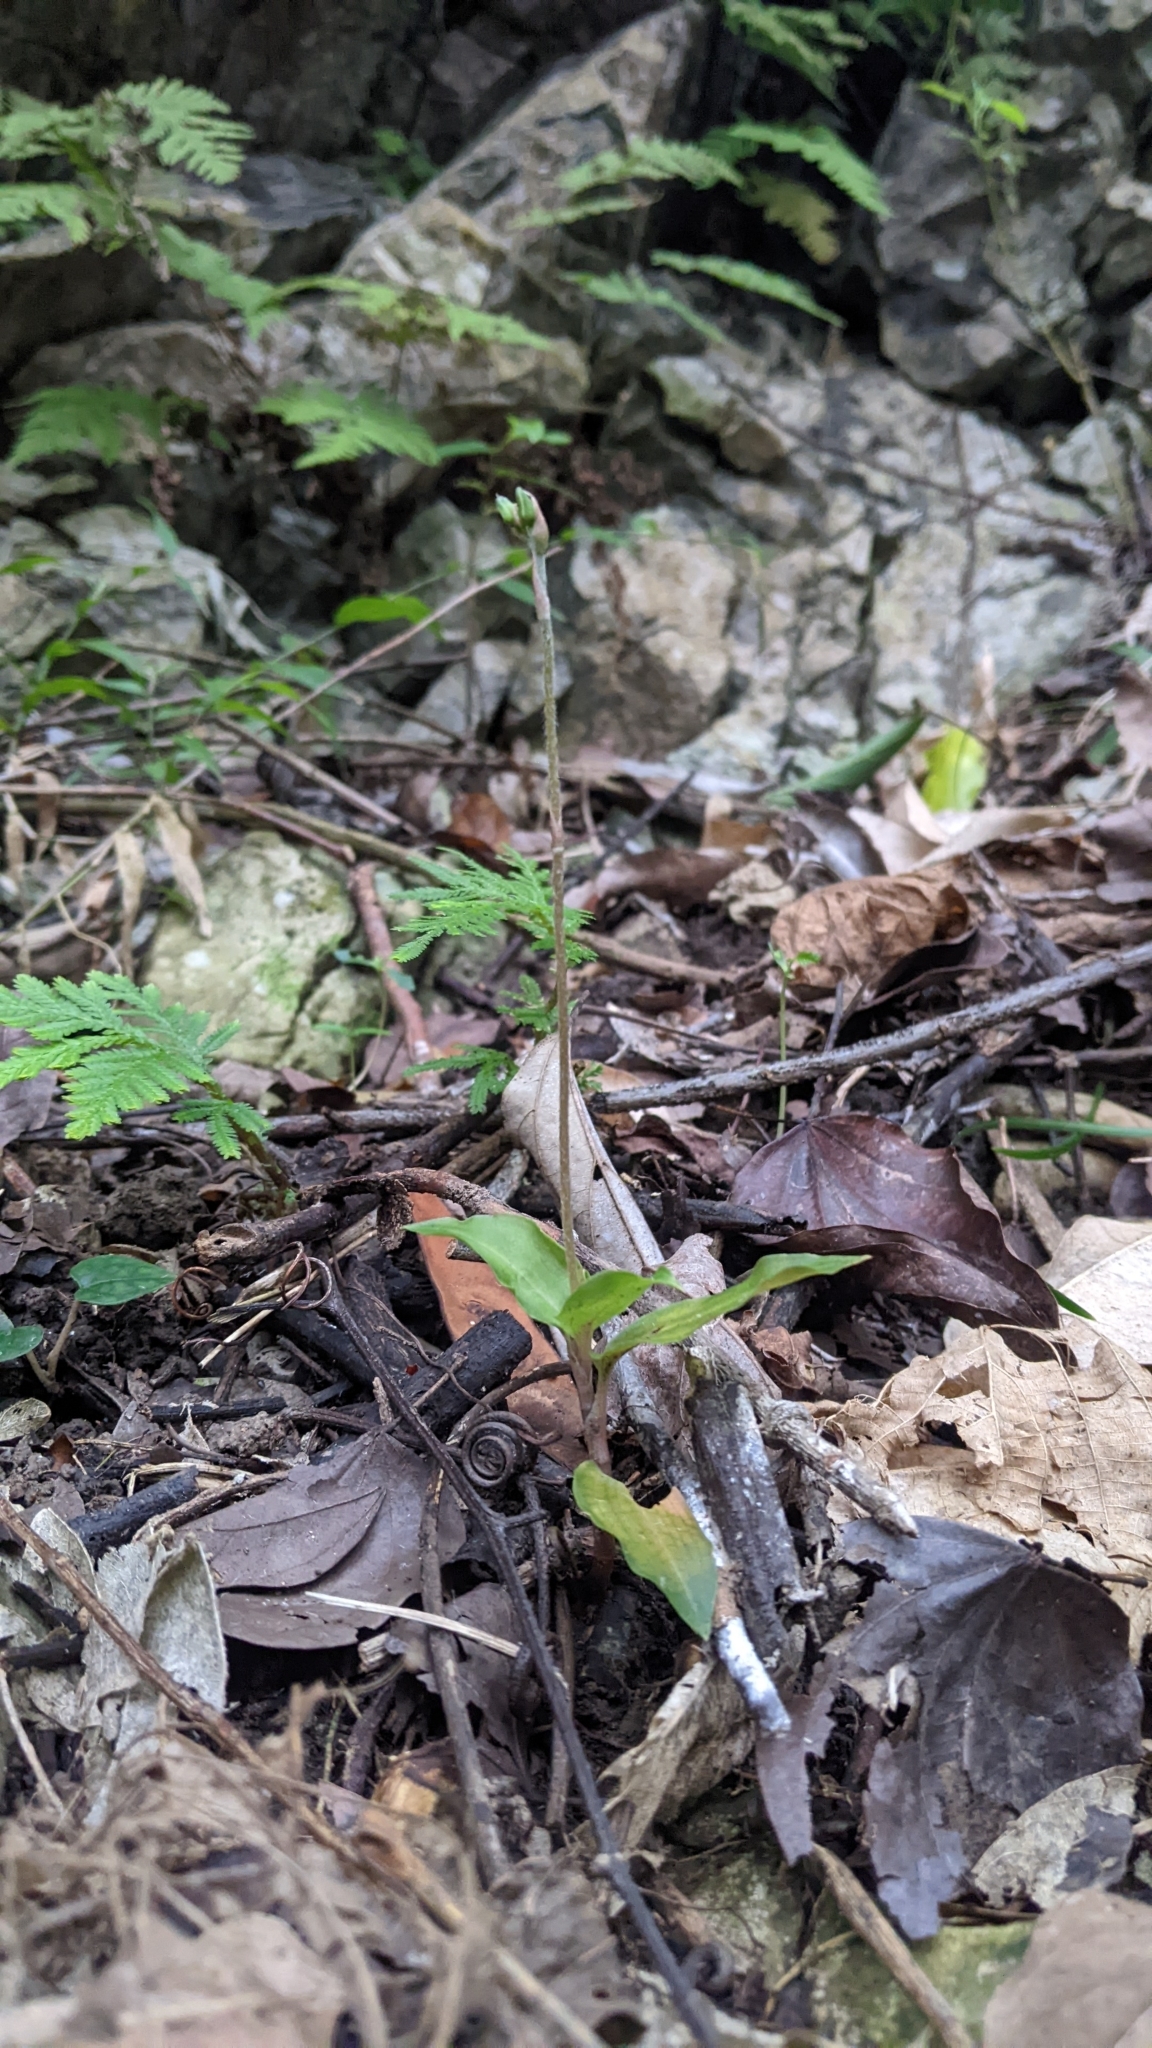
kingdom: Plantae
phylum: Tracheophyta
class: Liliopsida
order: Asparagales
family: Orchidaceae
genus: Zeuxine
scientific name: Zeuxine nervosa
